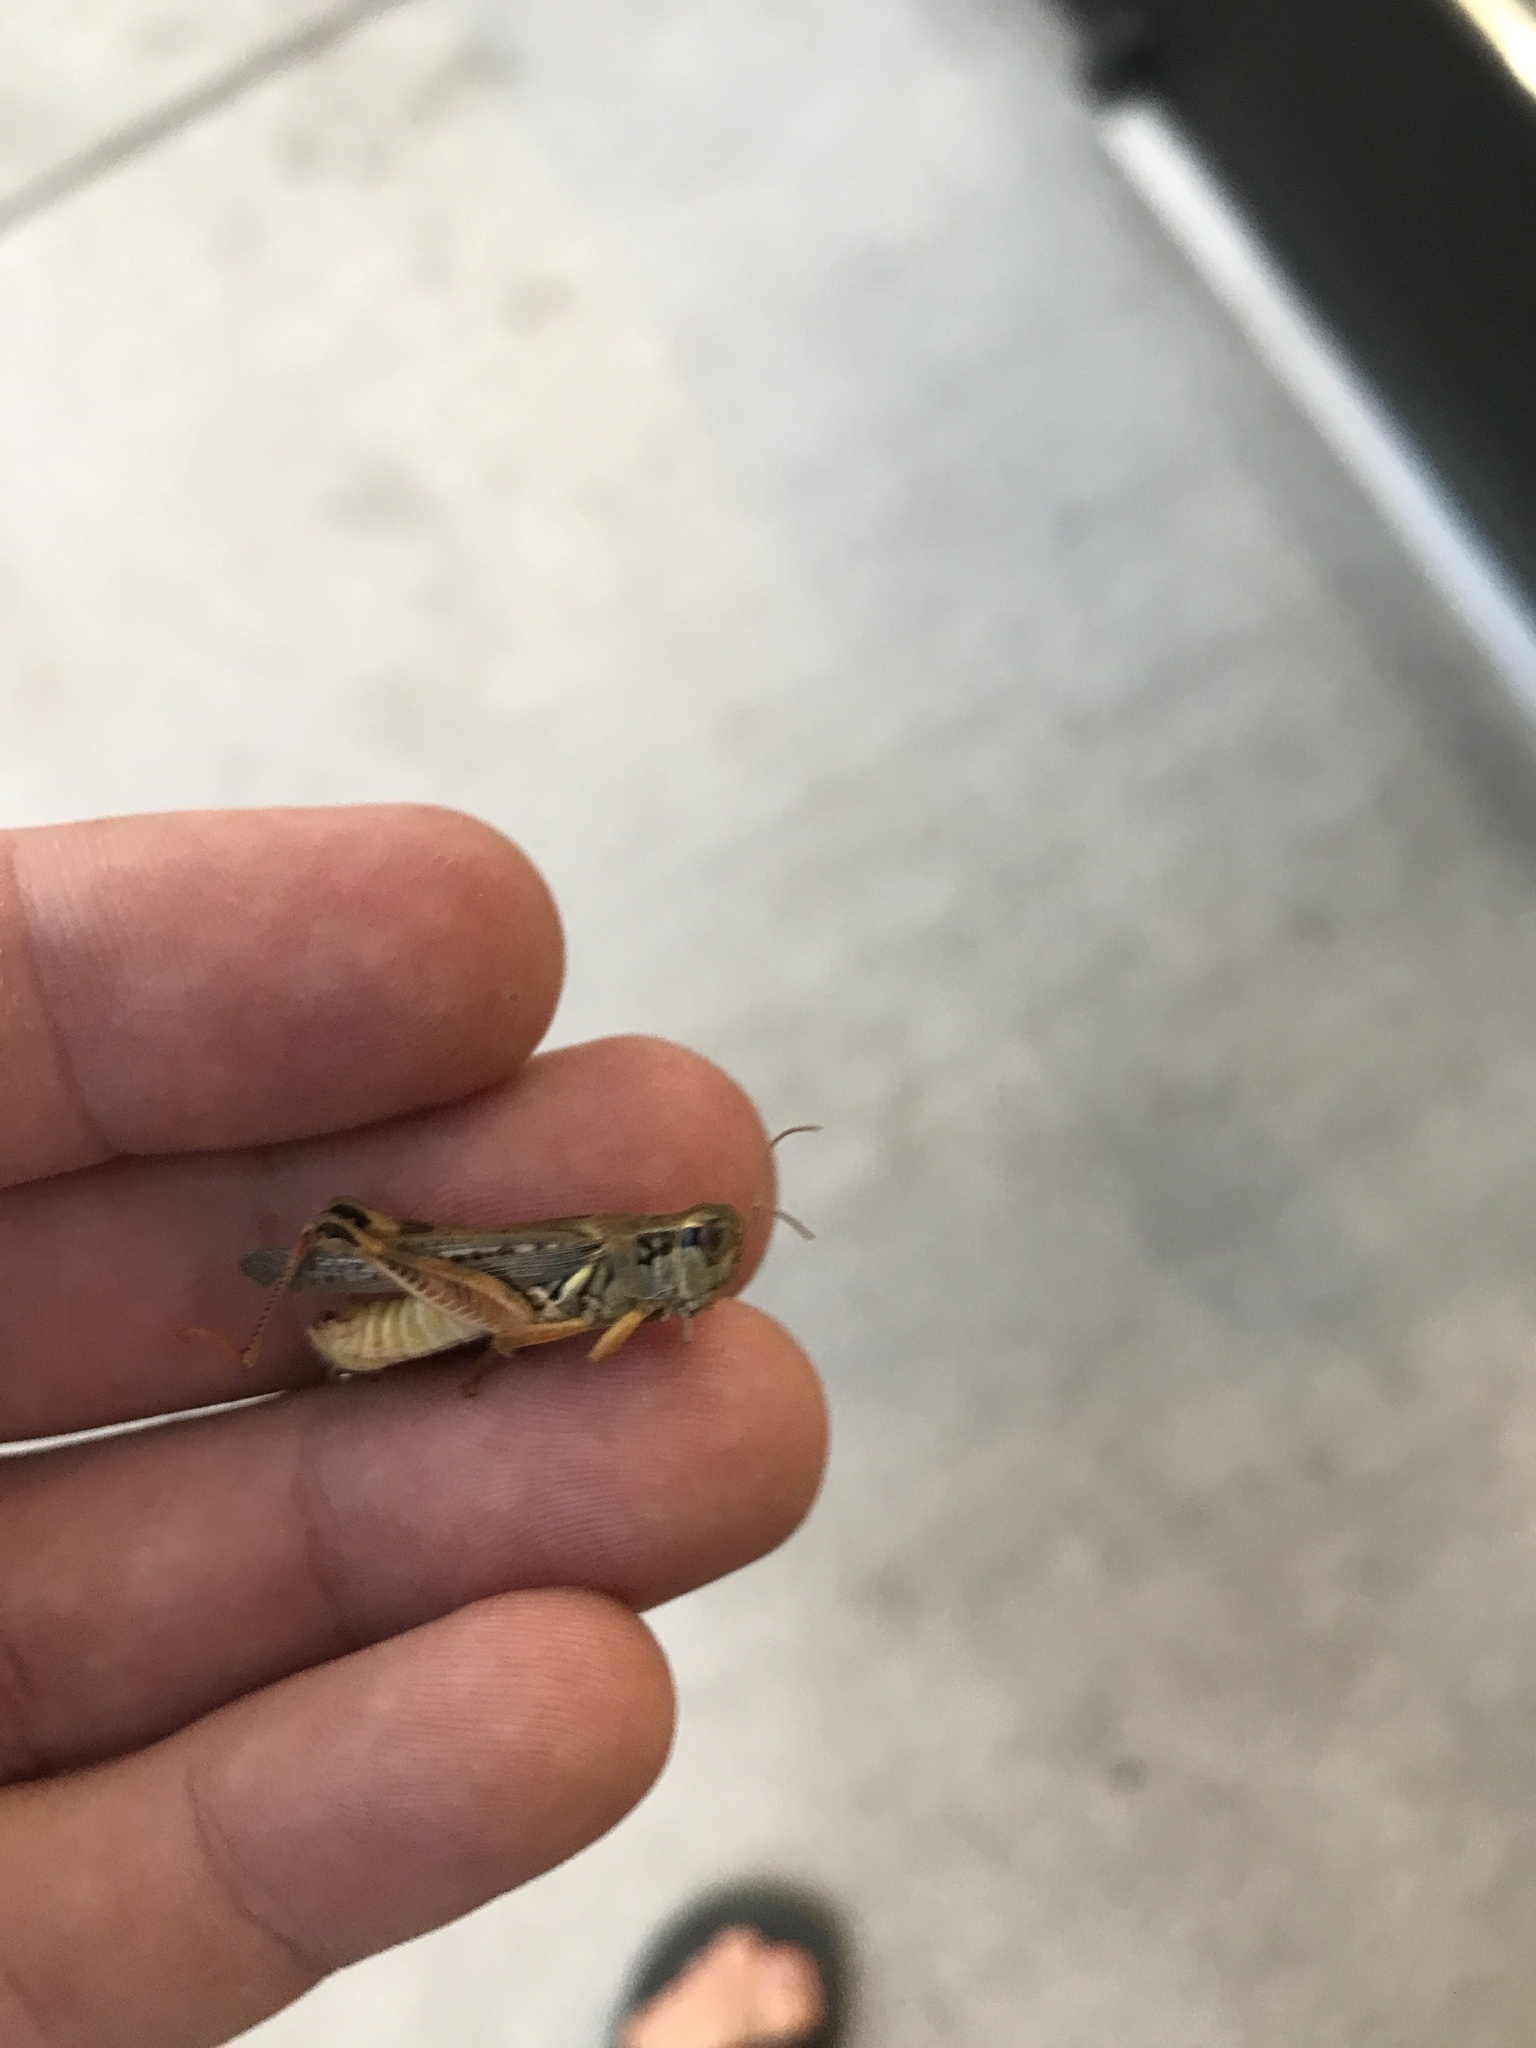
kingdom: Animalia
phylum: Arthropoda
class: Insecta
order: Orthoptera
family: Acrididae
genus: Melanoplus
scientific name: Melanoplus sanguinipes
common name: Migratory grasshopper
